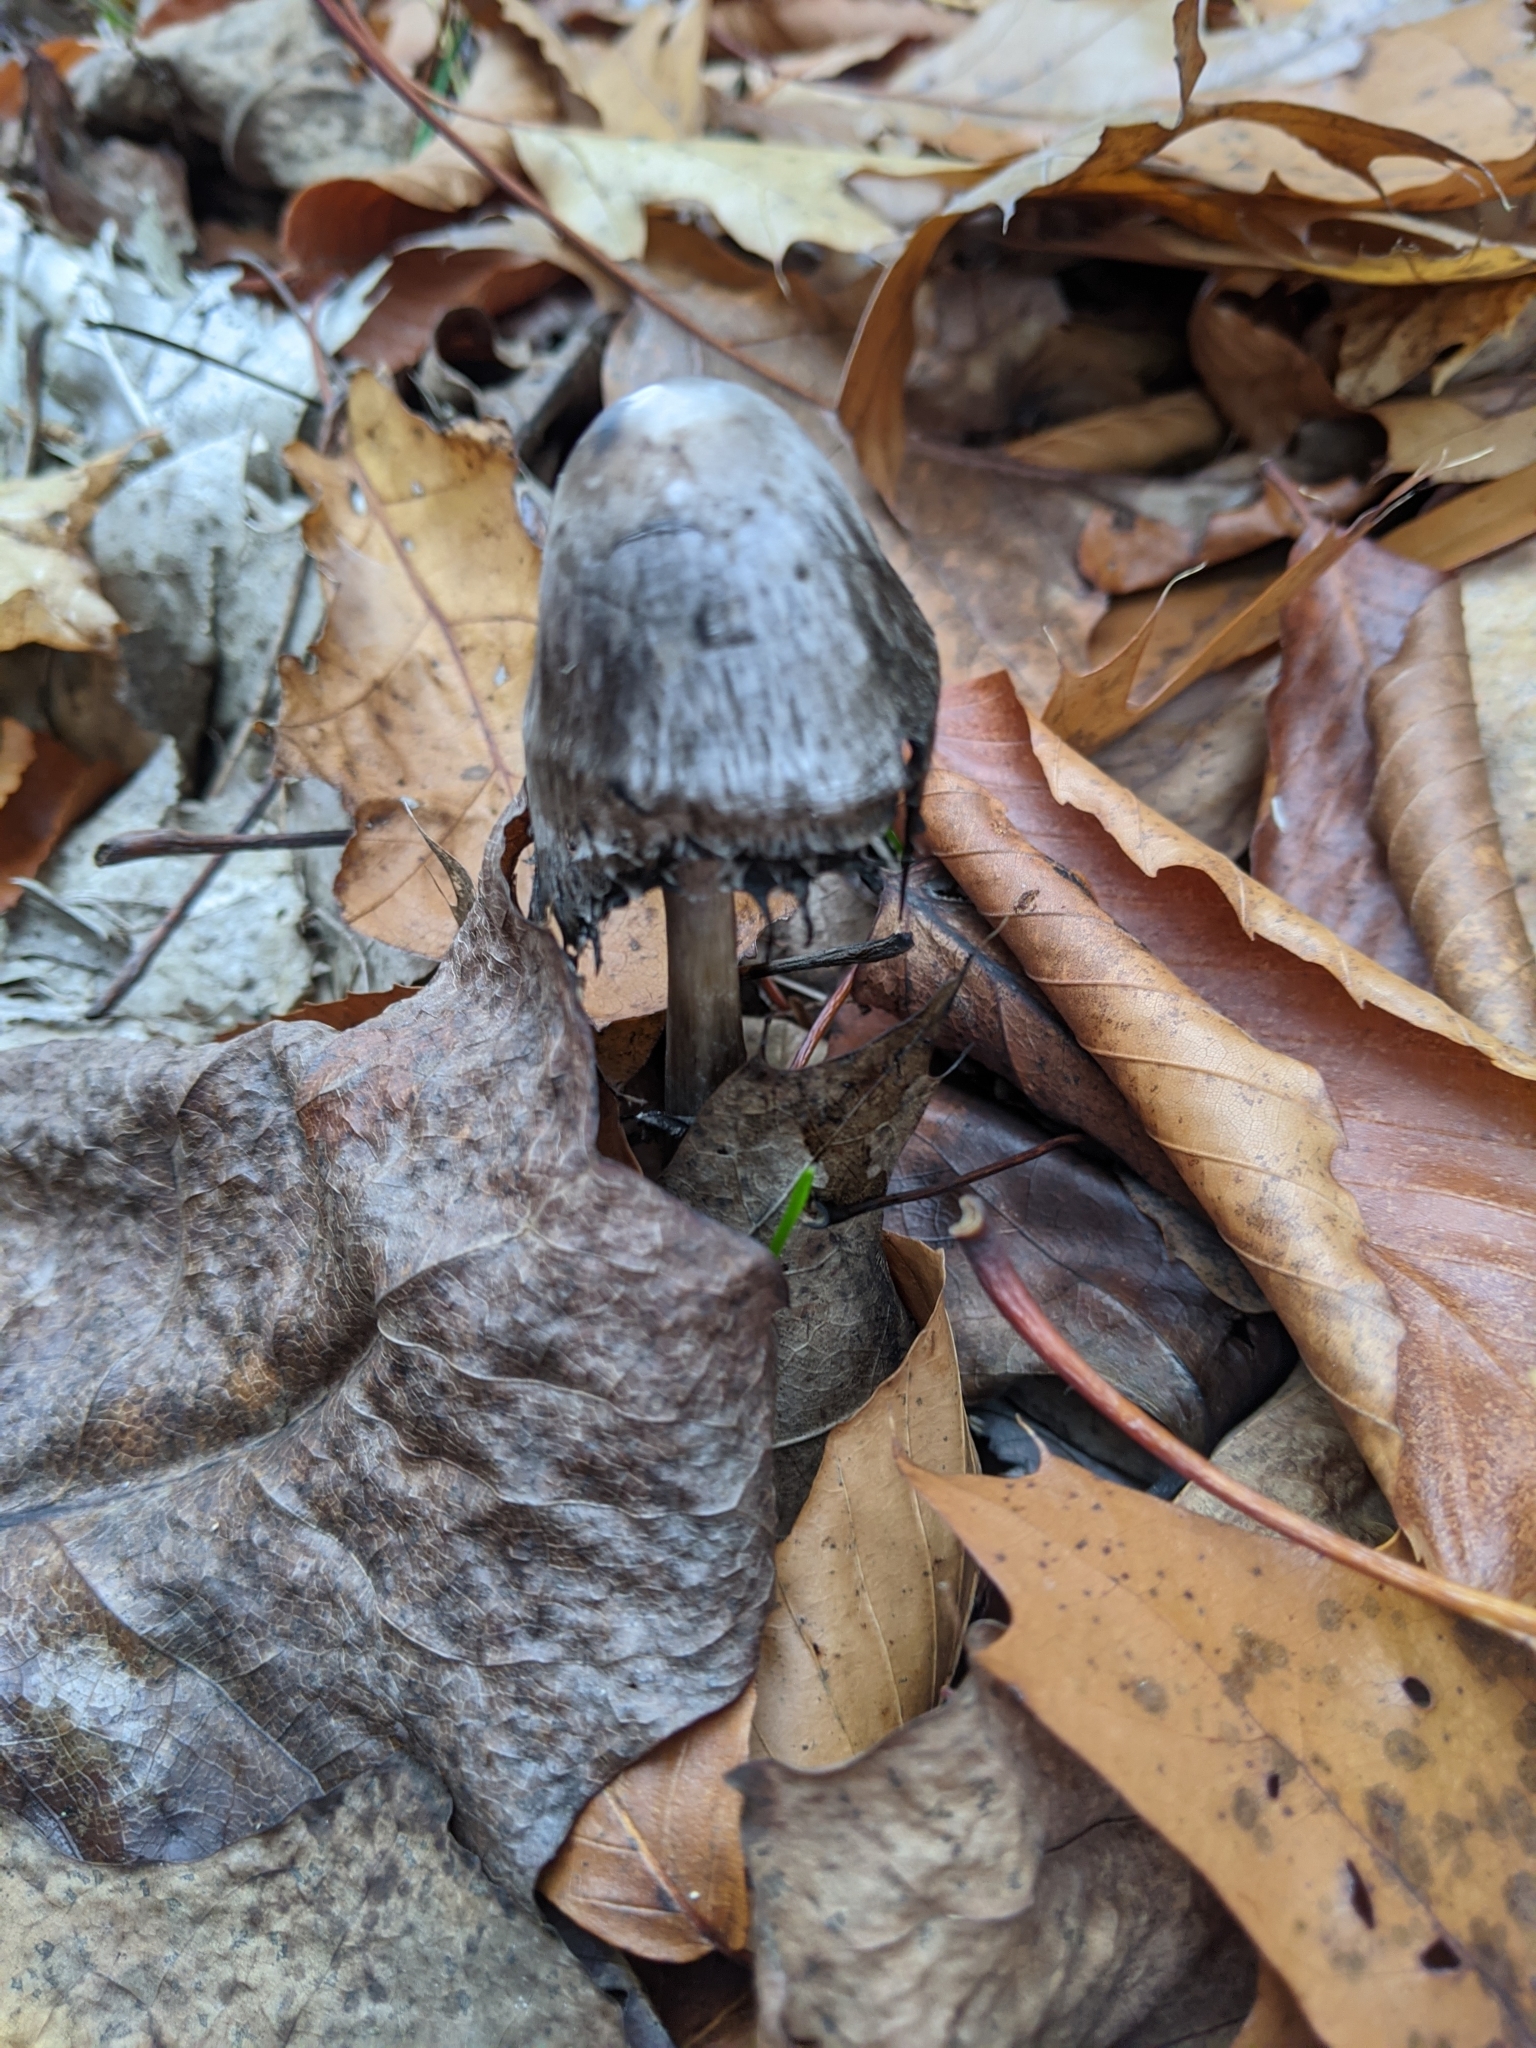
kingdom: Fungi
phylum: Basidiomycota
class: Agaricomycetes
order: Agaricales
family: Psathyrellaceae
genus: Coprinopsis
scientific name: Coprinopsis atramentaria
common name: Common ink-cap
